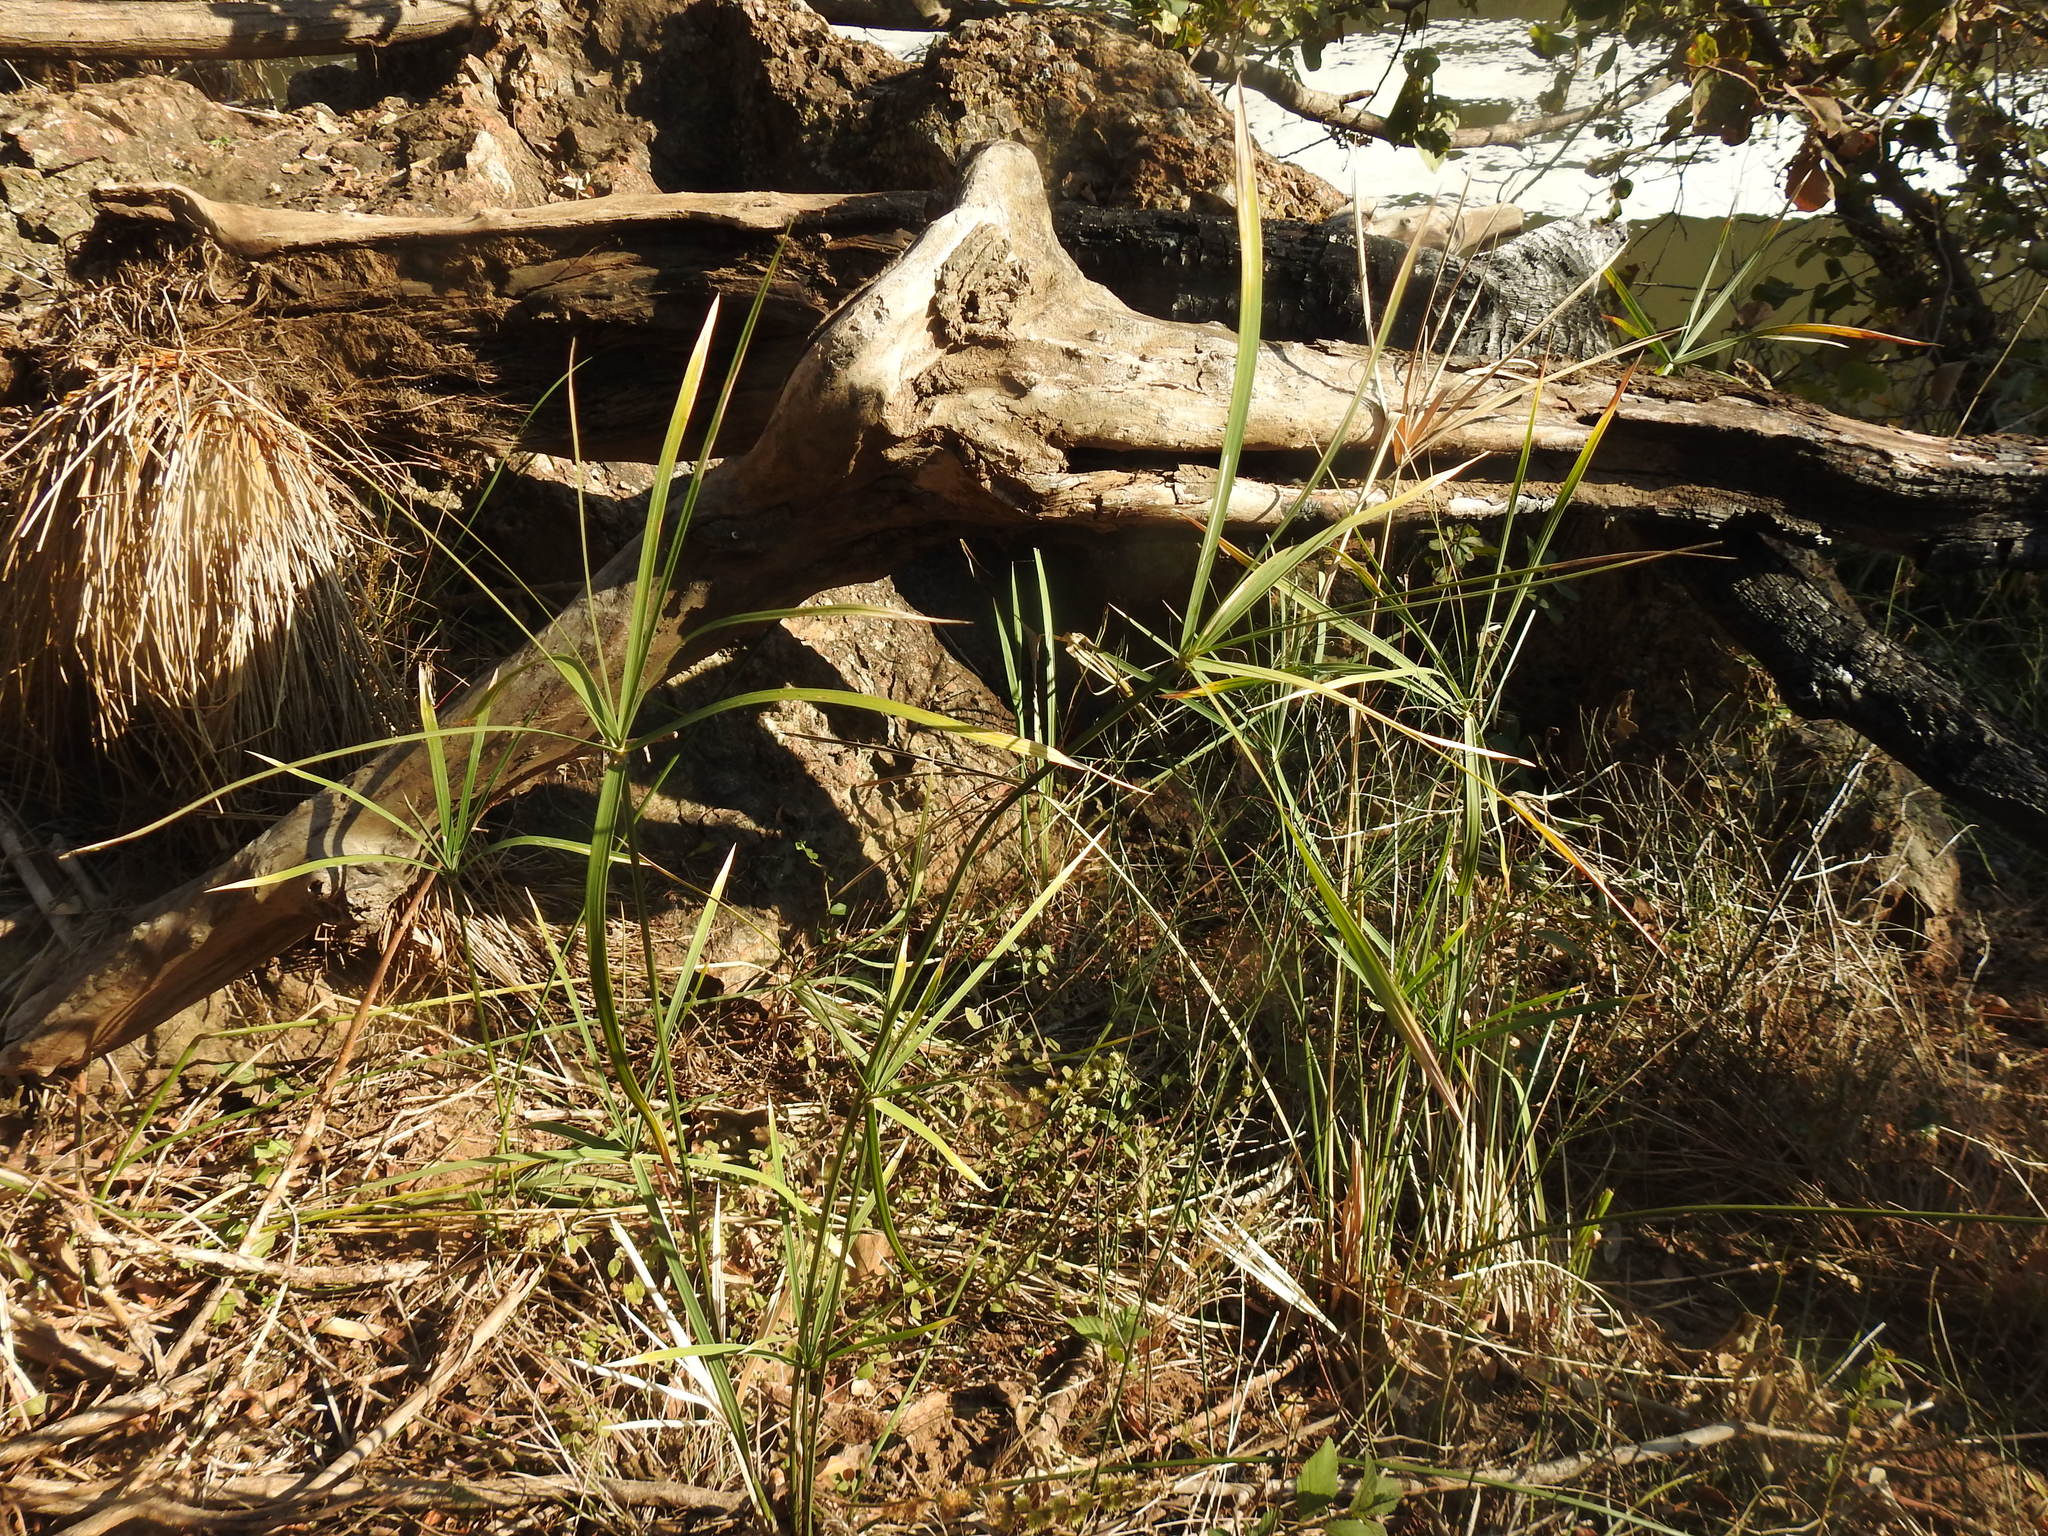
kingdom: Plantae
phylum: Tracheophyta
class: Liliopsida
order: Poales
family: Cyperaceae
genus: Cyperus
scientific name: Cyperus sexangularis
